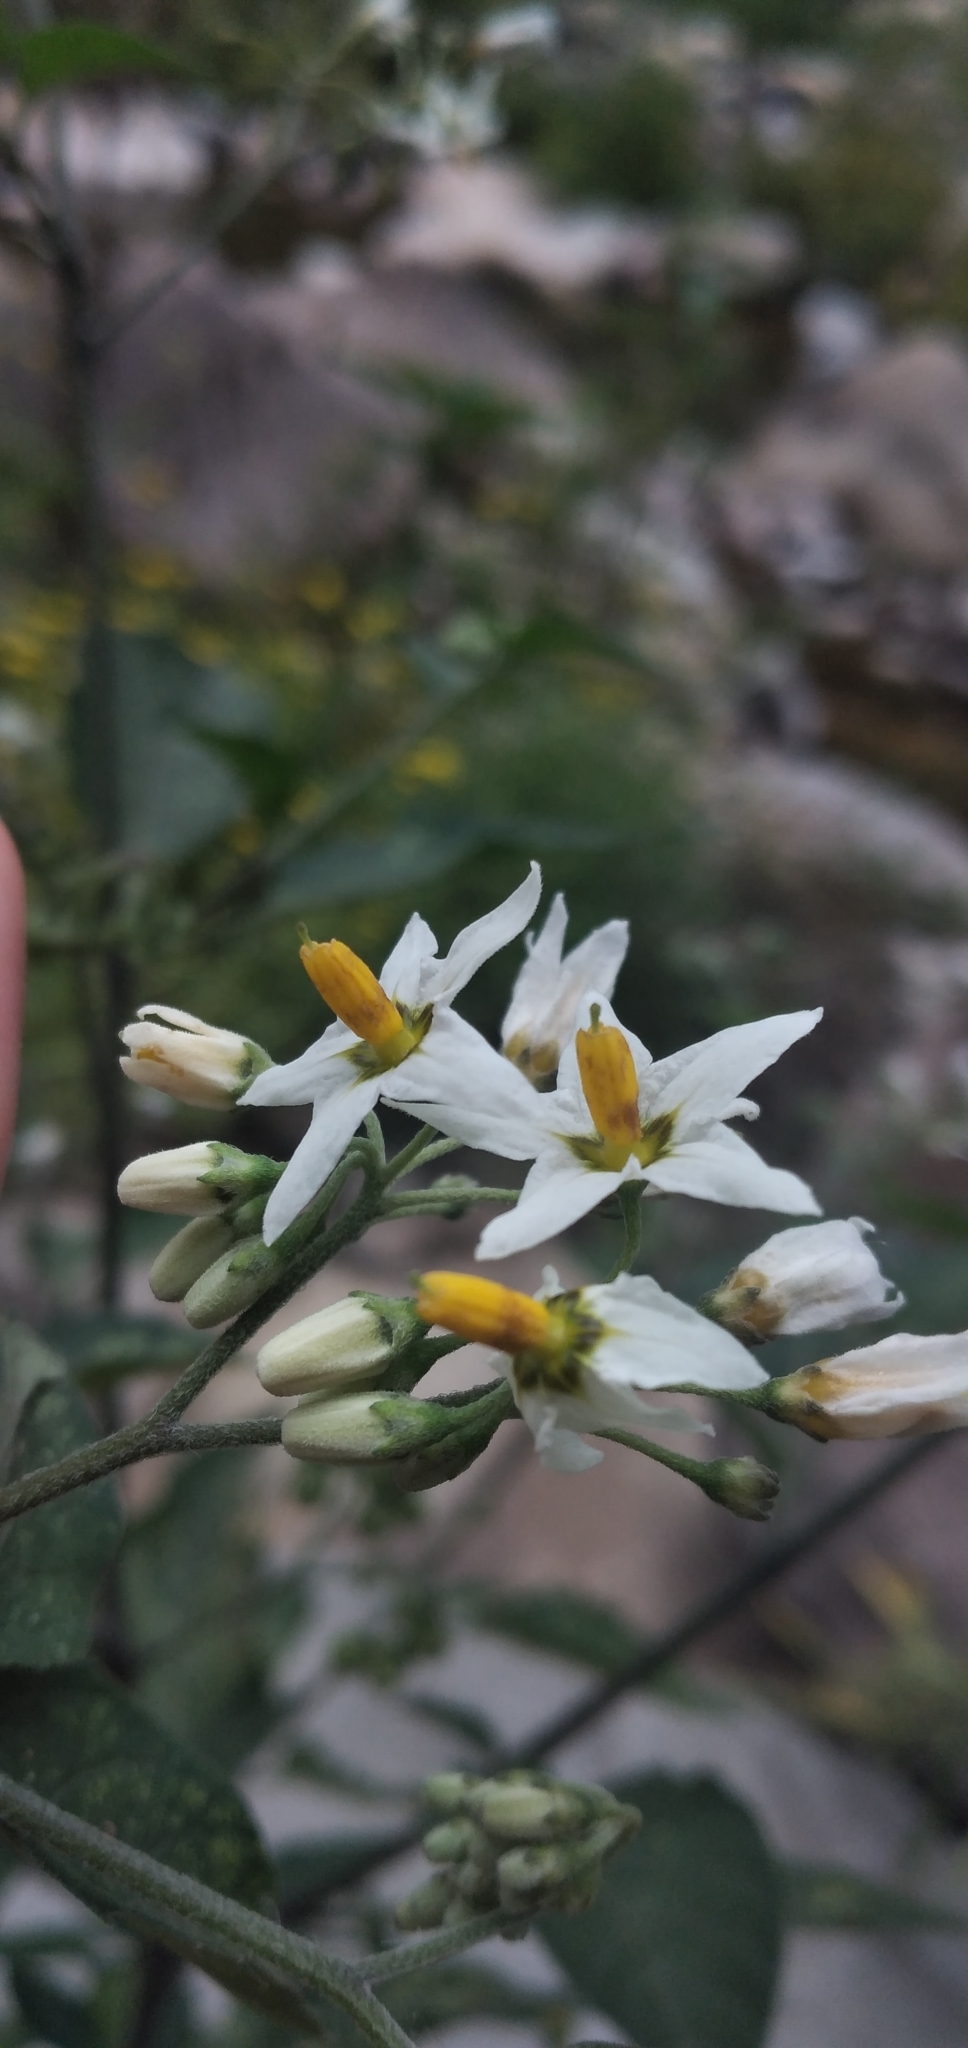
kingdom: Plantae
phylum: Tracheophyta
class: Magnoliopsida
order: Solanales
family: Solanaceae
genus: Solanum
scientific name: Solanum aloysiifolium
